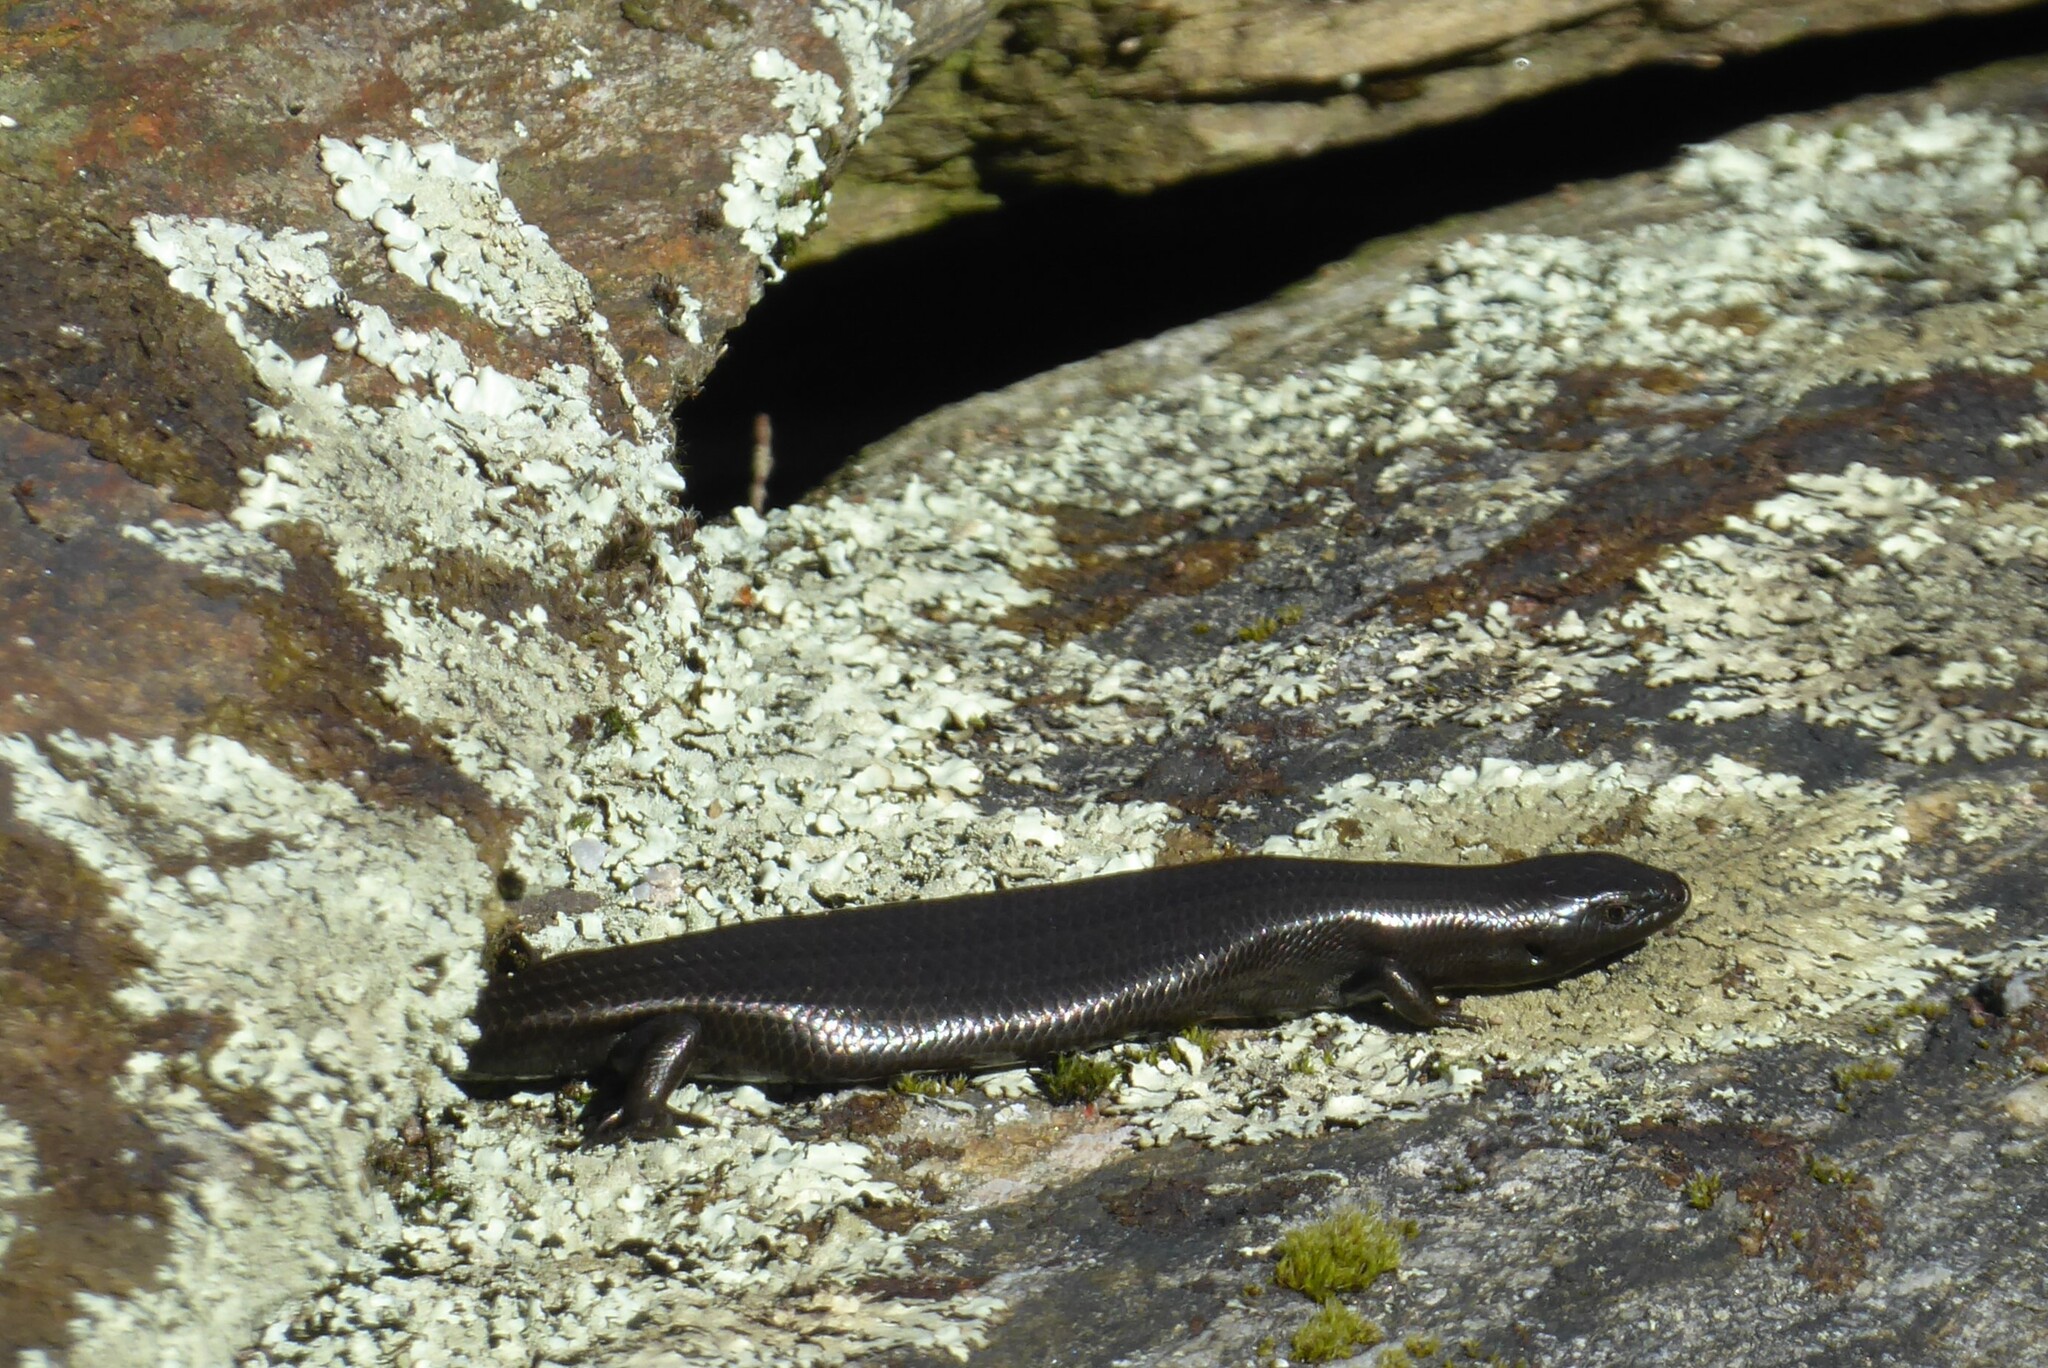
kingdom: Animalia
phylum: Chordata
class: Squamata
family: Scincidae
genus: Oligosoma
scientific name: Oligosoma polychroma
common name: Common new zealand skink
